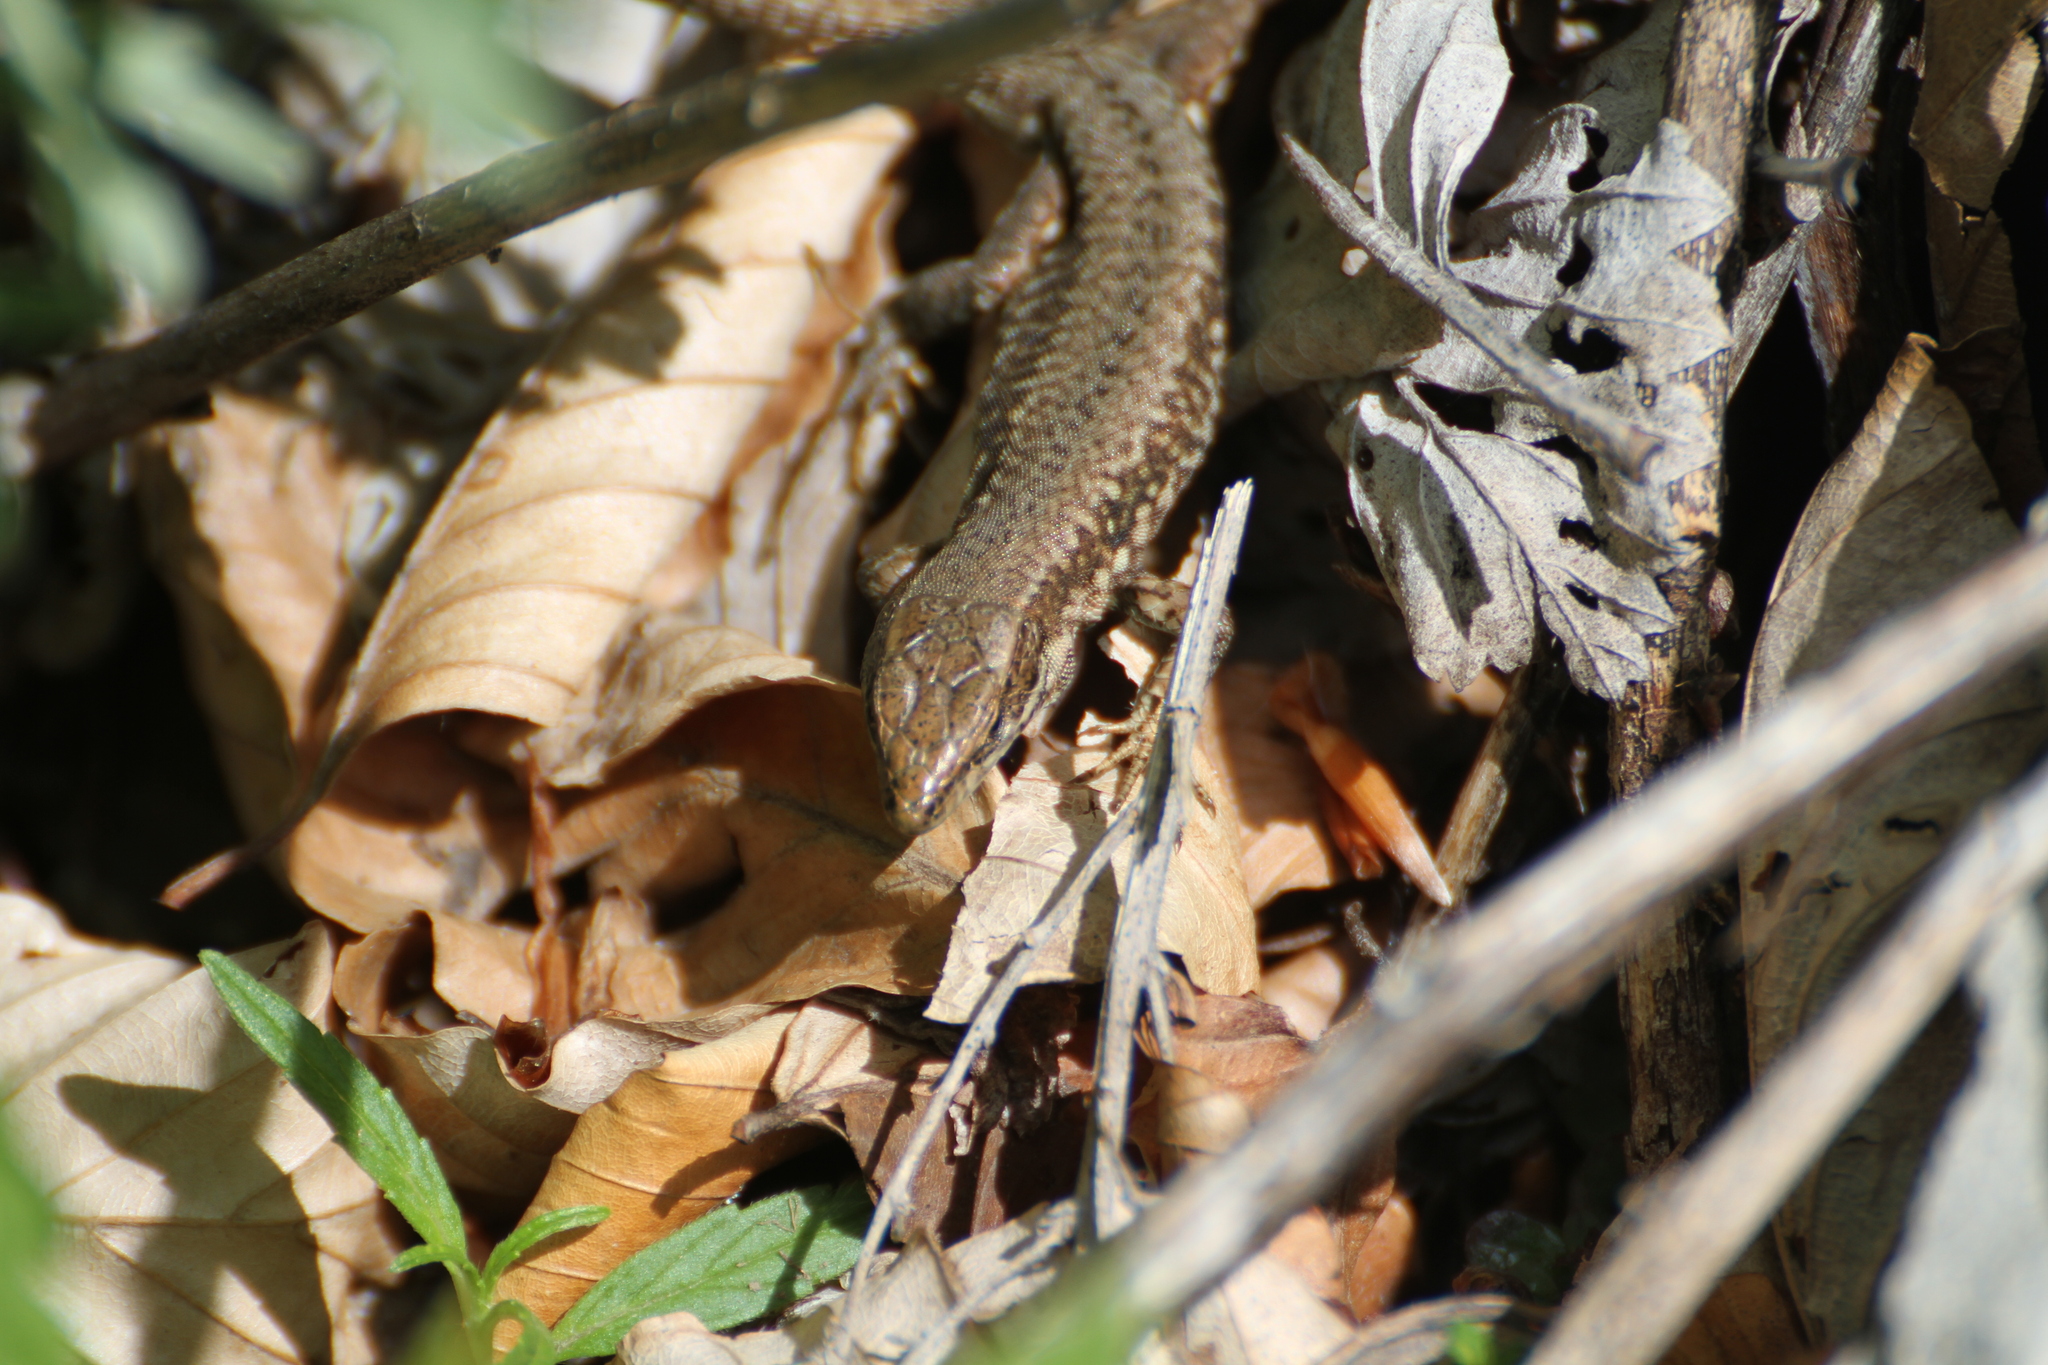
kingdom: Animalia
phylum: Chordata
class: Squamata
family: Lacertidae
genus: Podarcis
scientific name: Podarcis muralis
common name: Common wall lizard
